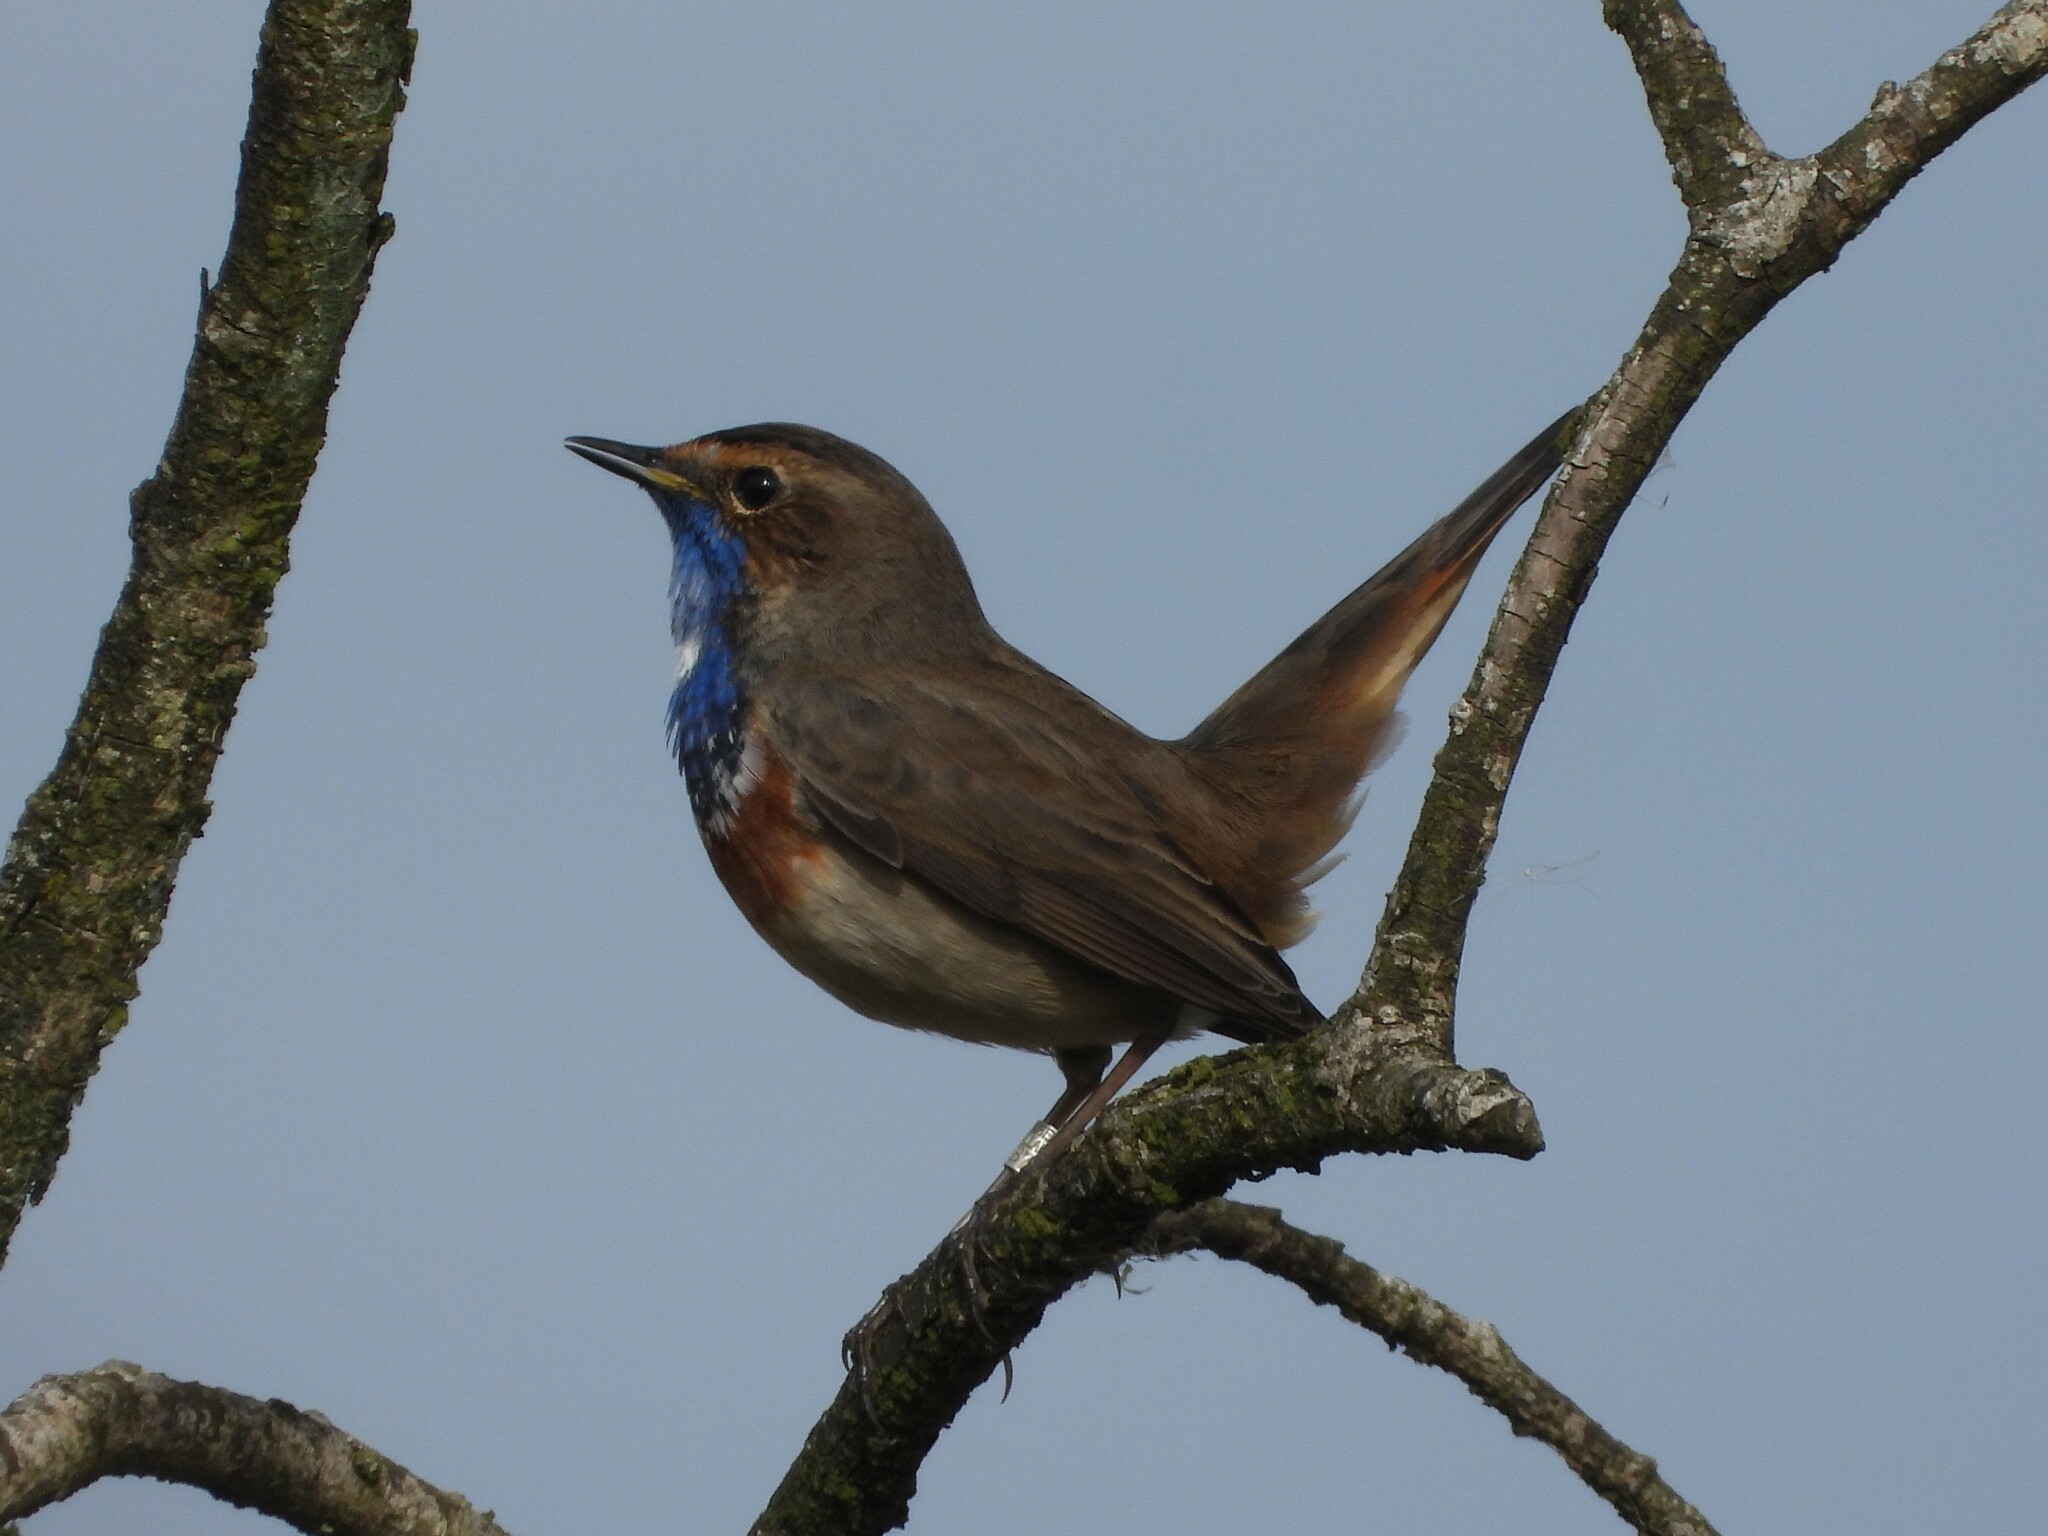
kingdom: Animalia
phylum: Chordata
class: Aves
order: Passeriformes
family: Muscicapidae
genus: Luscinia
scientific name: Luscinia svecica
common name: Bluethroat
